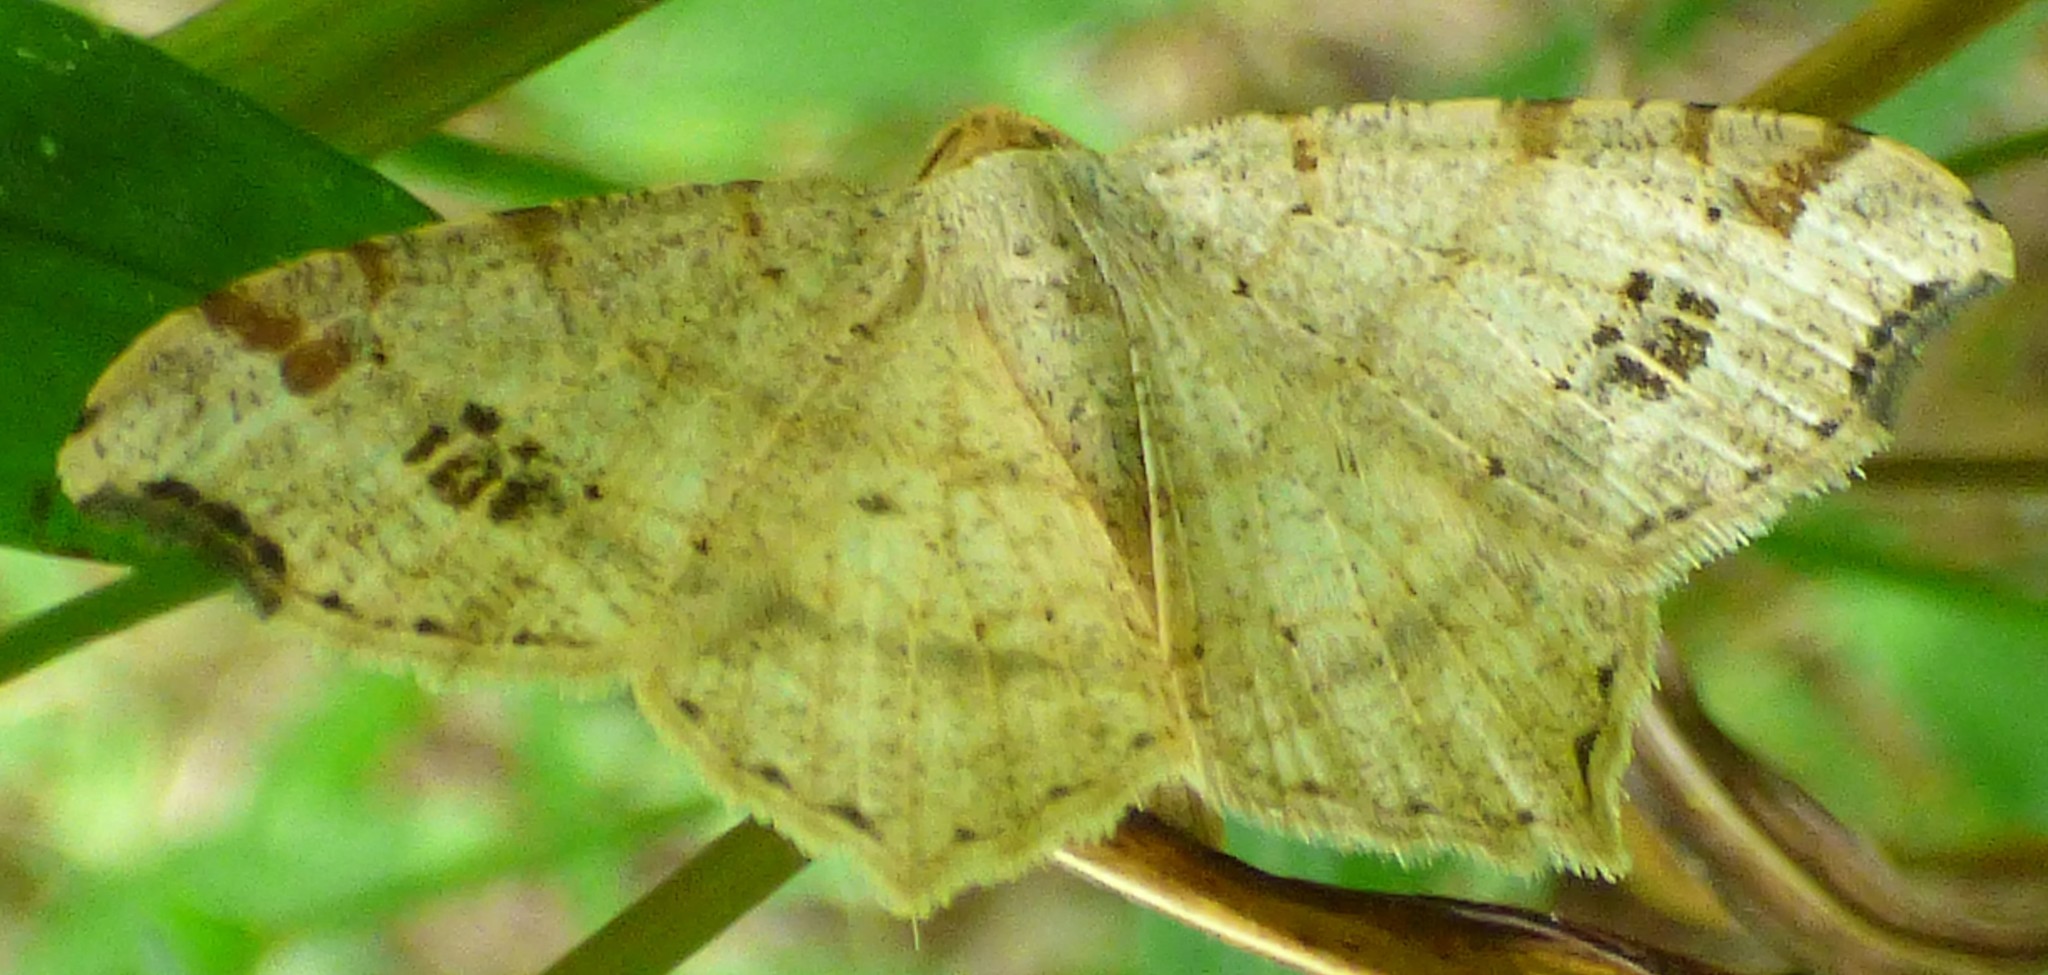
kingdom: Animalia
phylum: Arthropoda
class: Insecta
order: Lepidoptera
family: Geometridae
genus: Macaria
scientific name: Macaria aemulataria
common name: Common angle
